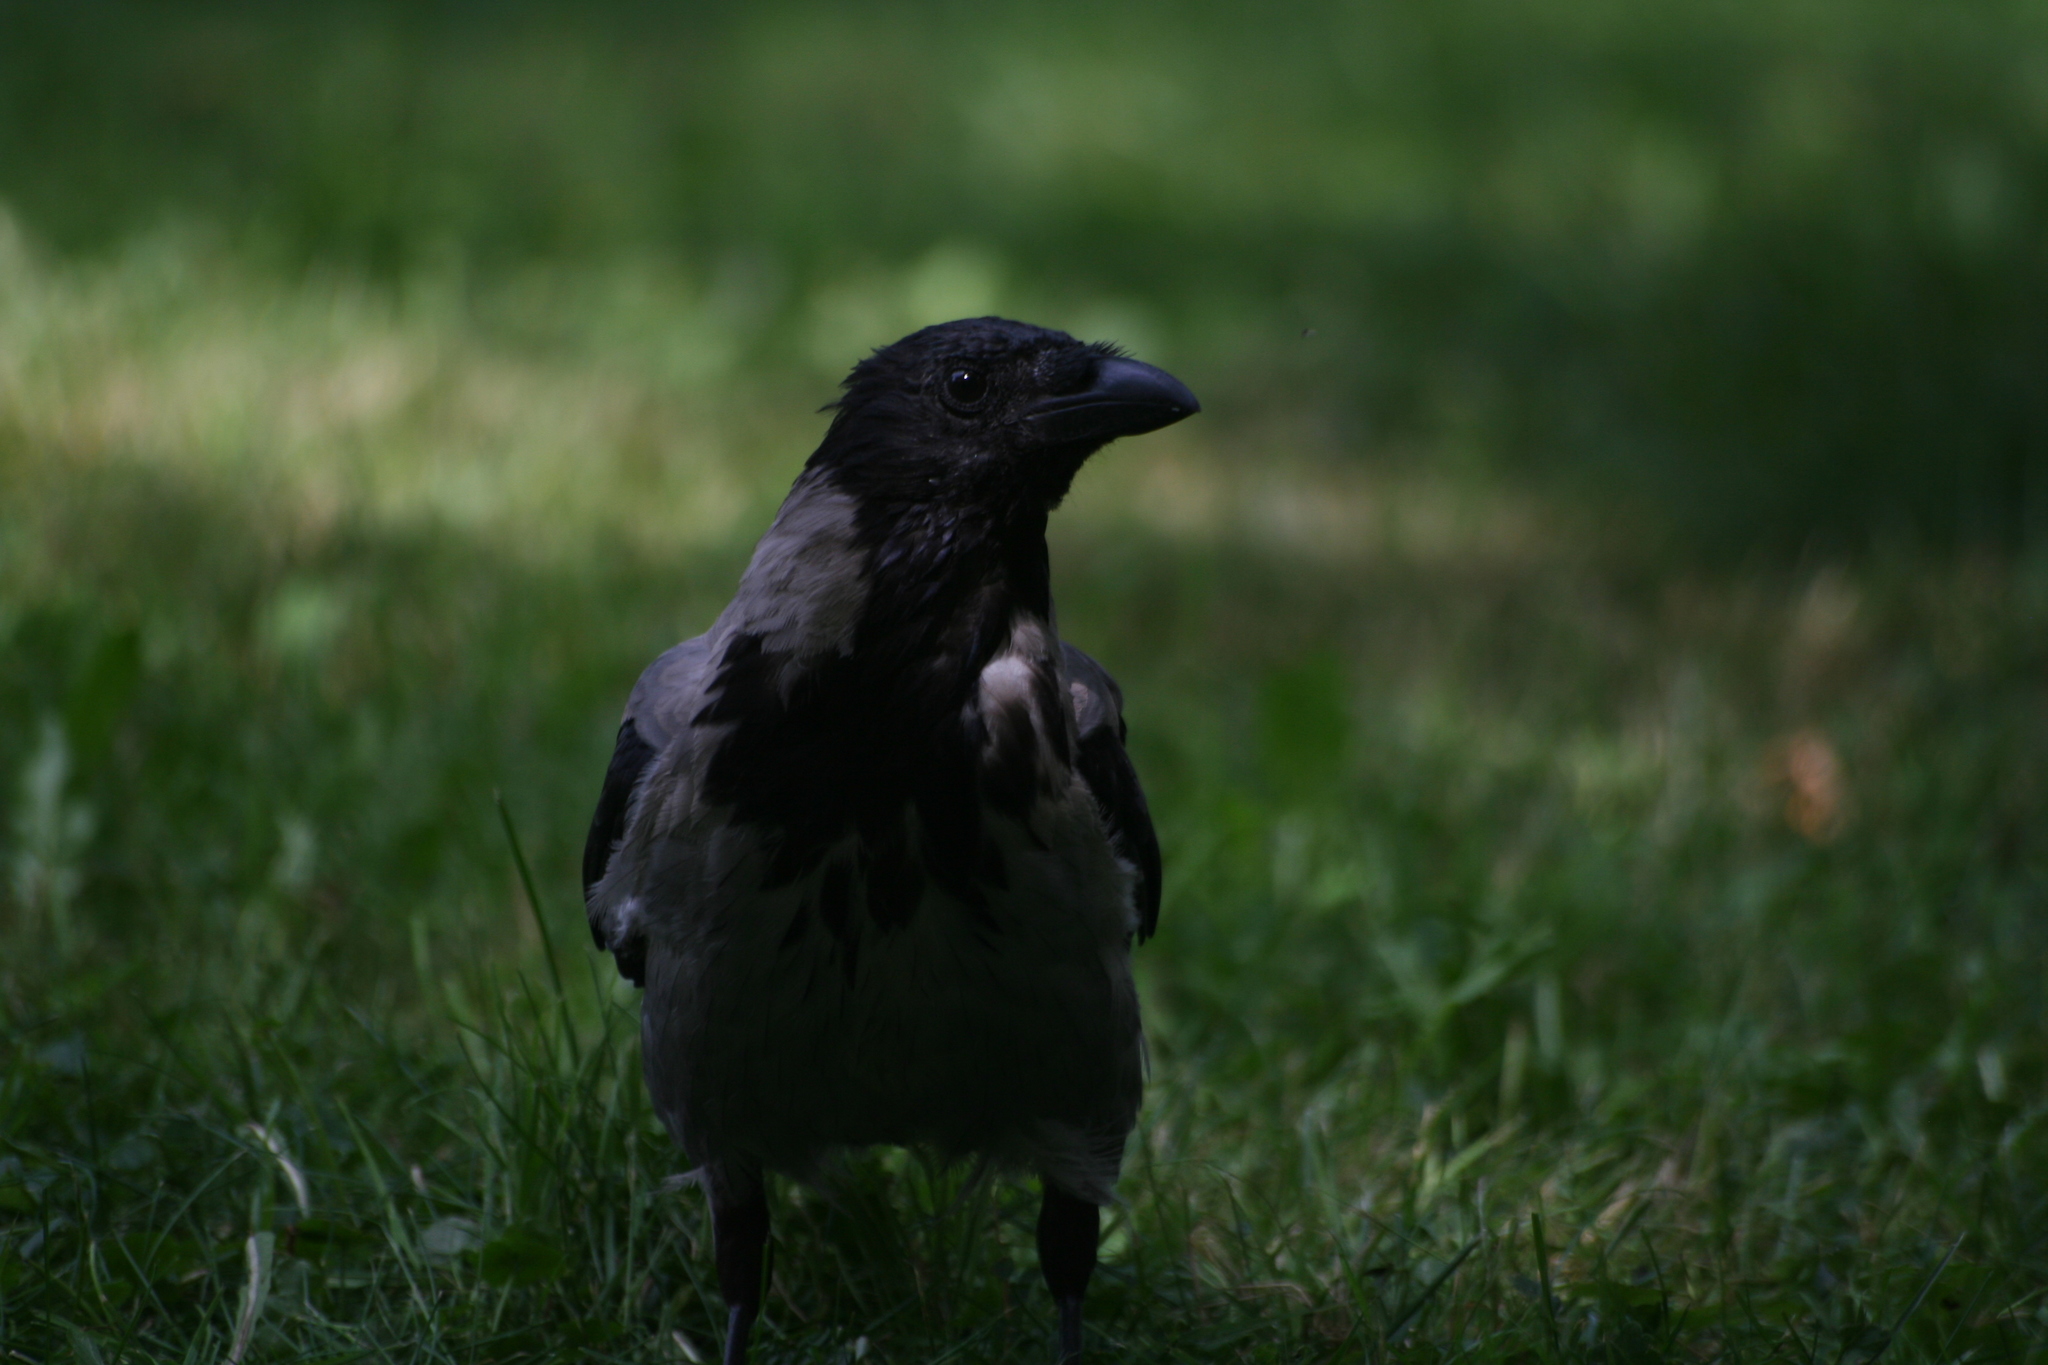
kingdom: Animalia
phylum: Chordata
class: Aves
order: Passeriformes
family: Corvidae
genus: Corvus
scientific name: Corvus cornix
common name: Hooded crow
